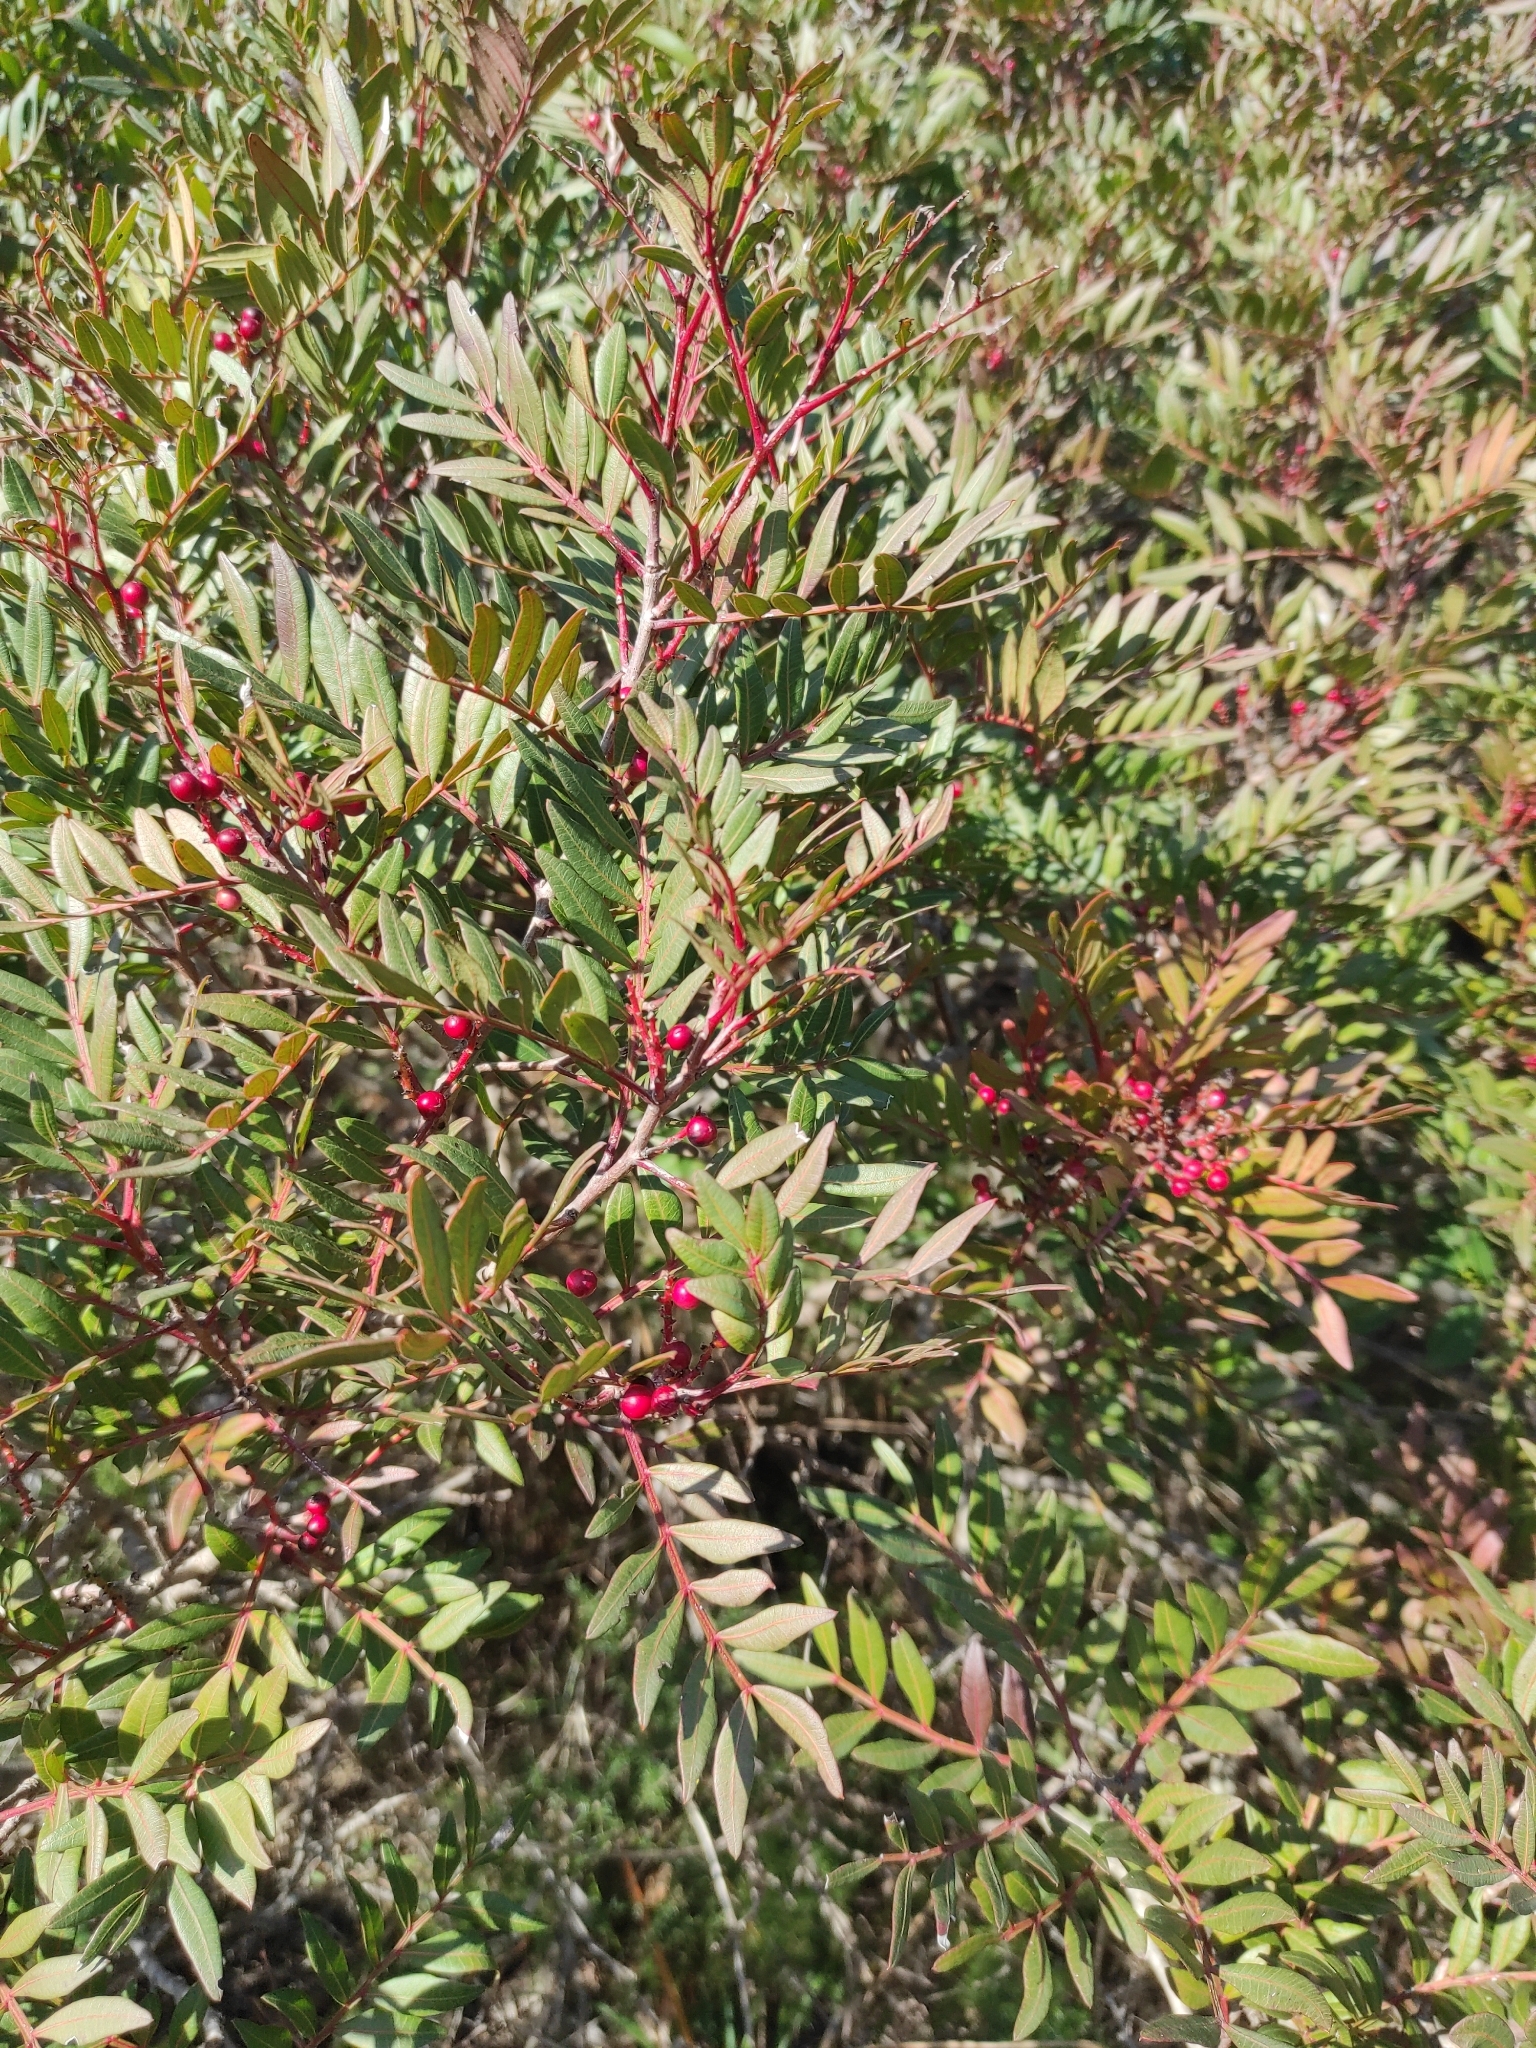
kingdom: Plantae
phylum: Tracheophyta
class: Magnoliopsida
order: Sapindales
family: Anacardiaceae
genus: Pistacia
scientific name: Pistacia lentiscus
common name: Lentisk
